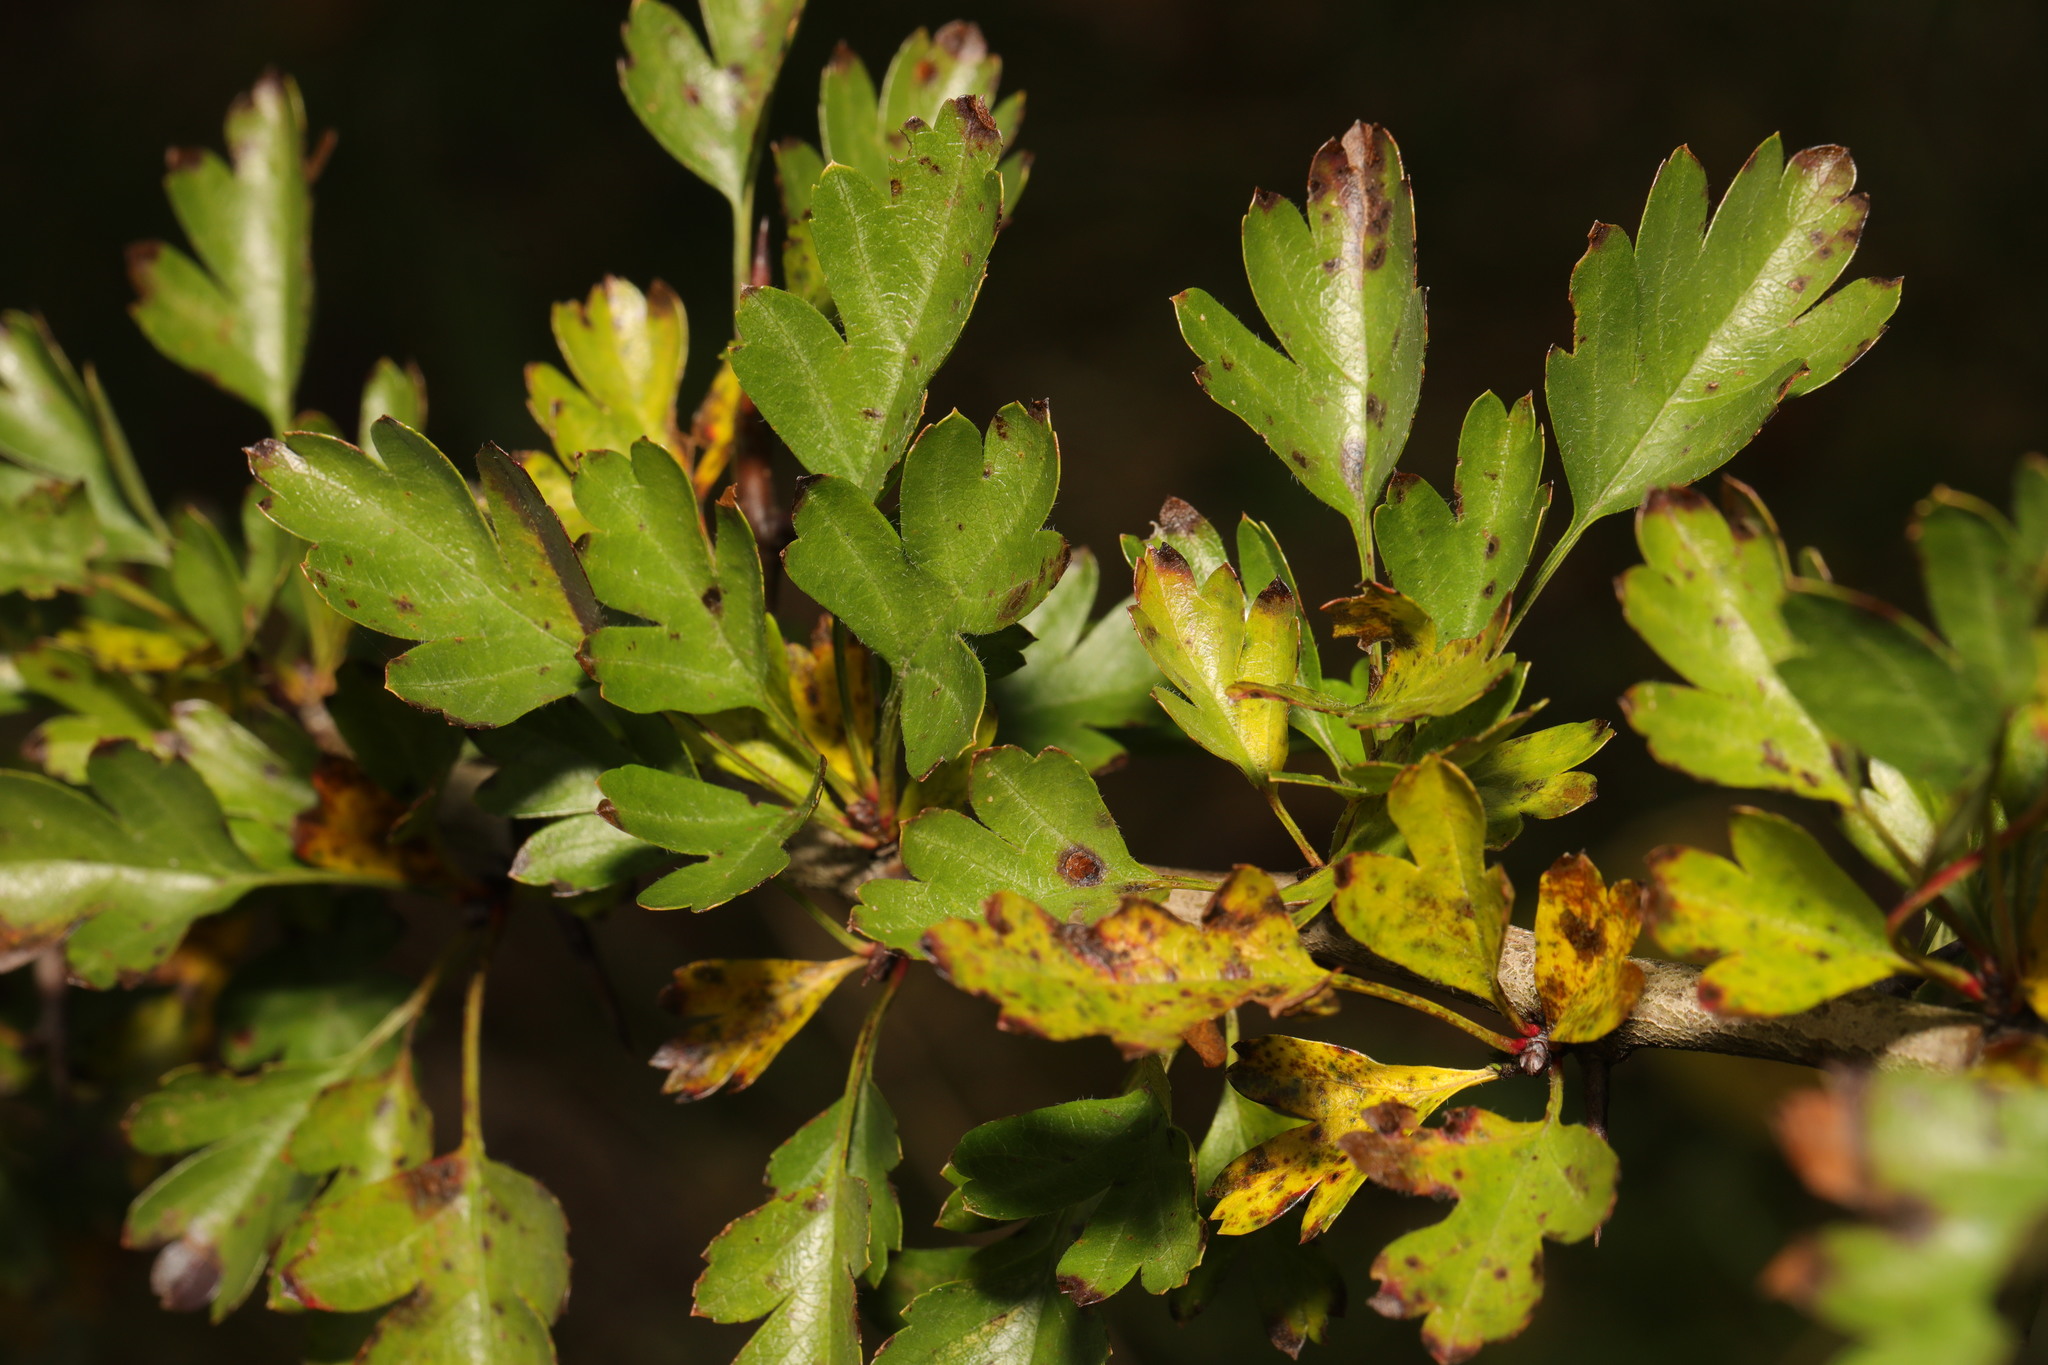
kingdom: Plantae
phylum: Tracheophyta
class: Magnoliopsida
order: Rosales
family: Rosaceae
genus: Crataegus
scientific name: Crataegus monogyna
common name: Hawthorn
